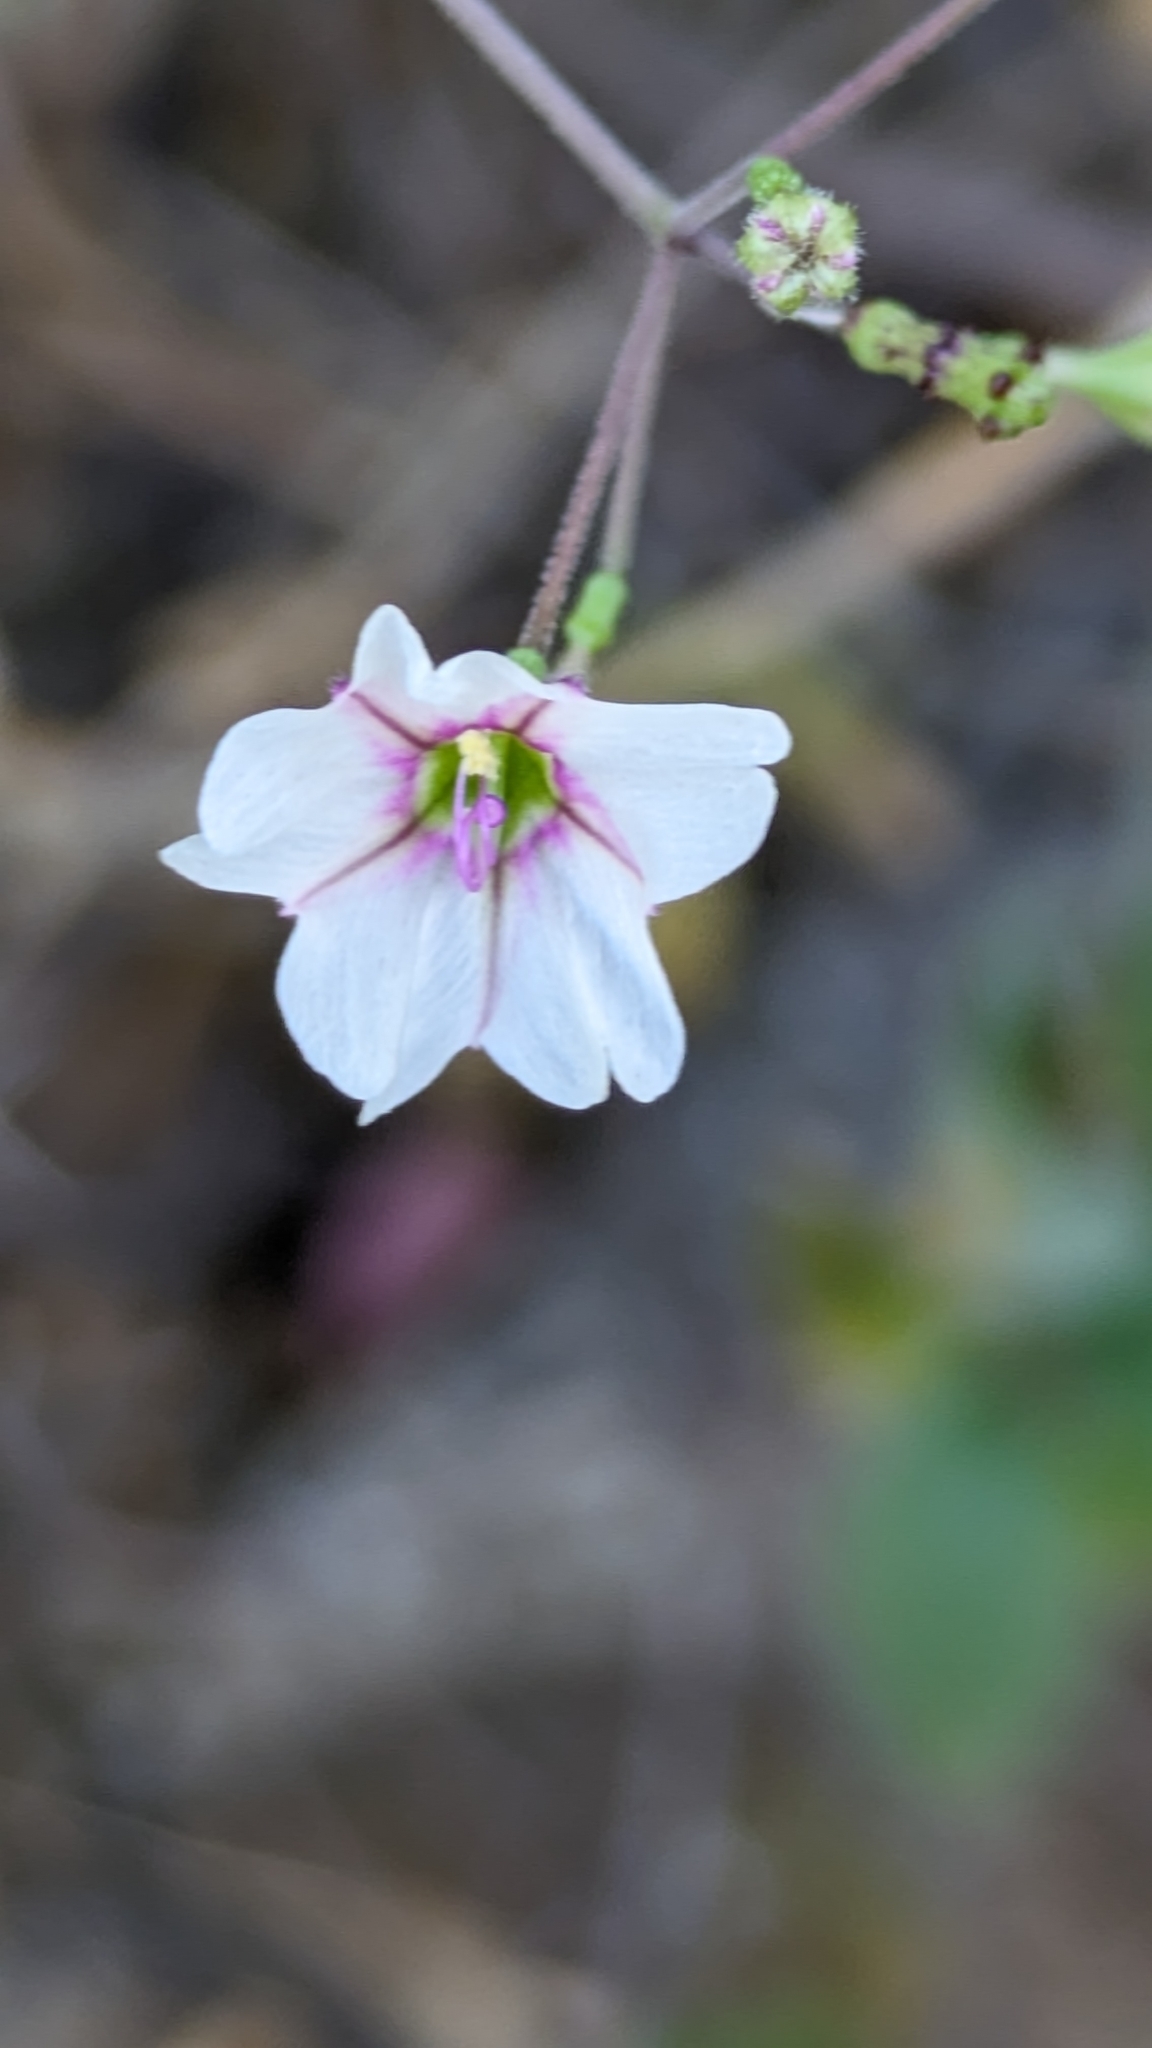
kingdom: Plantae
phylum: Tracheophyta
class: Magnoliopsida
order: Caryophyllales
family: Nyctaginaceae
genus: Commicarpus
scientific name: Commicarpus brandegeei
